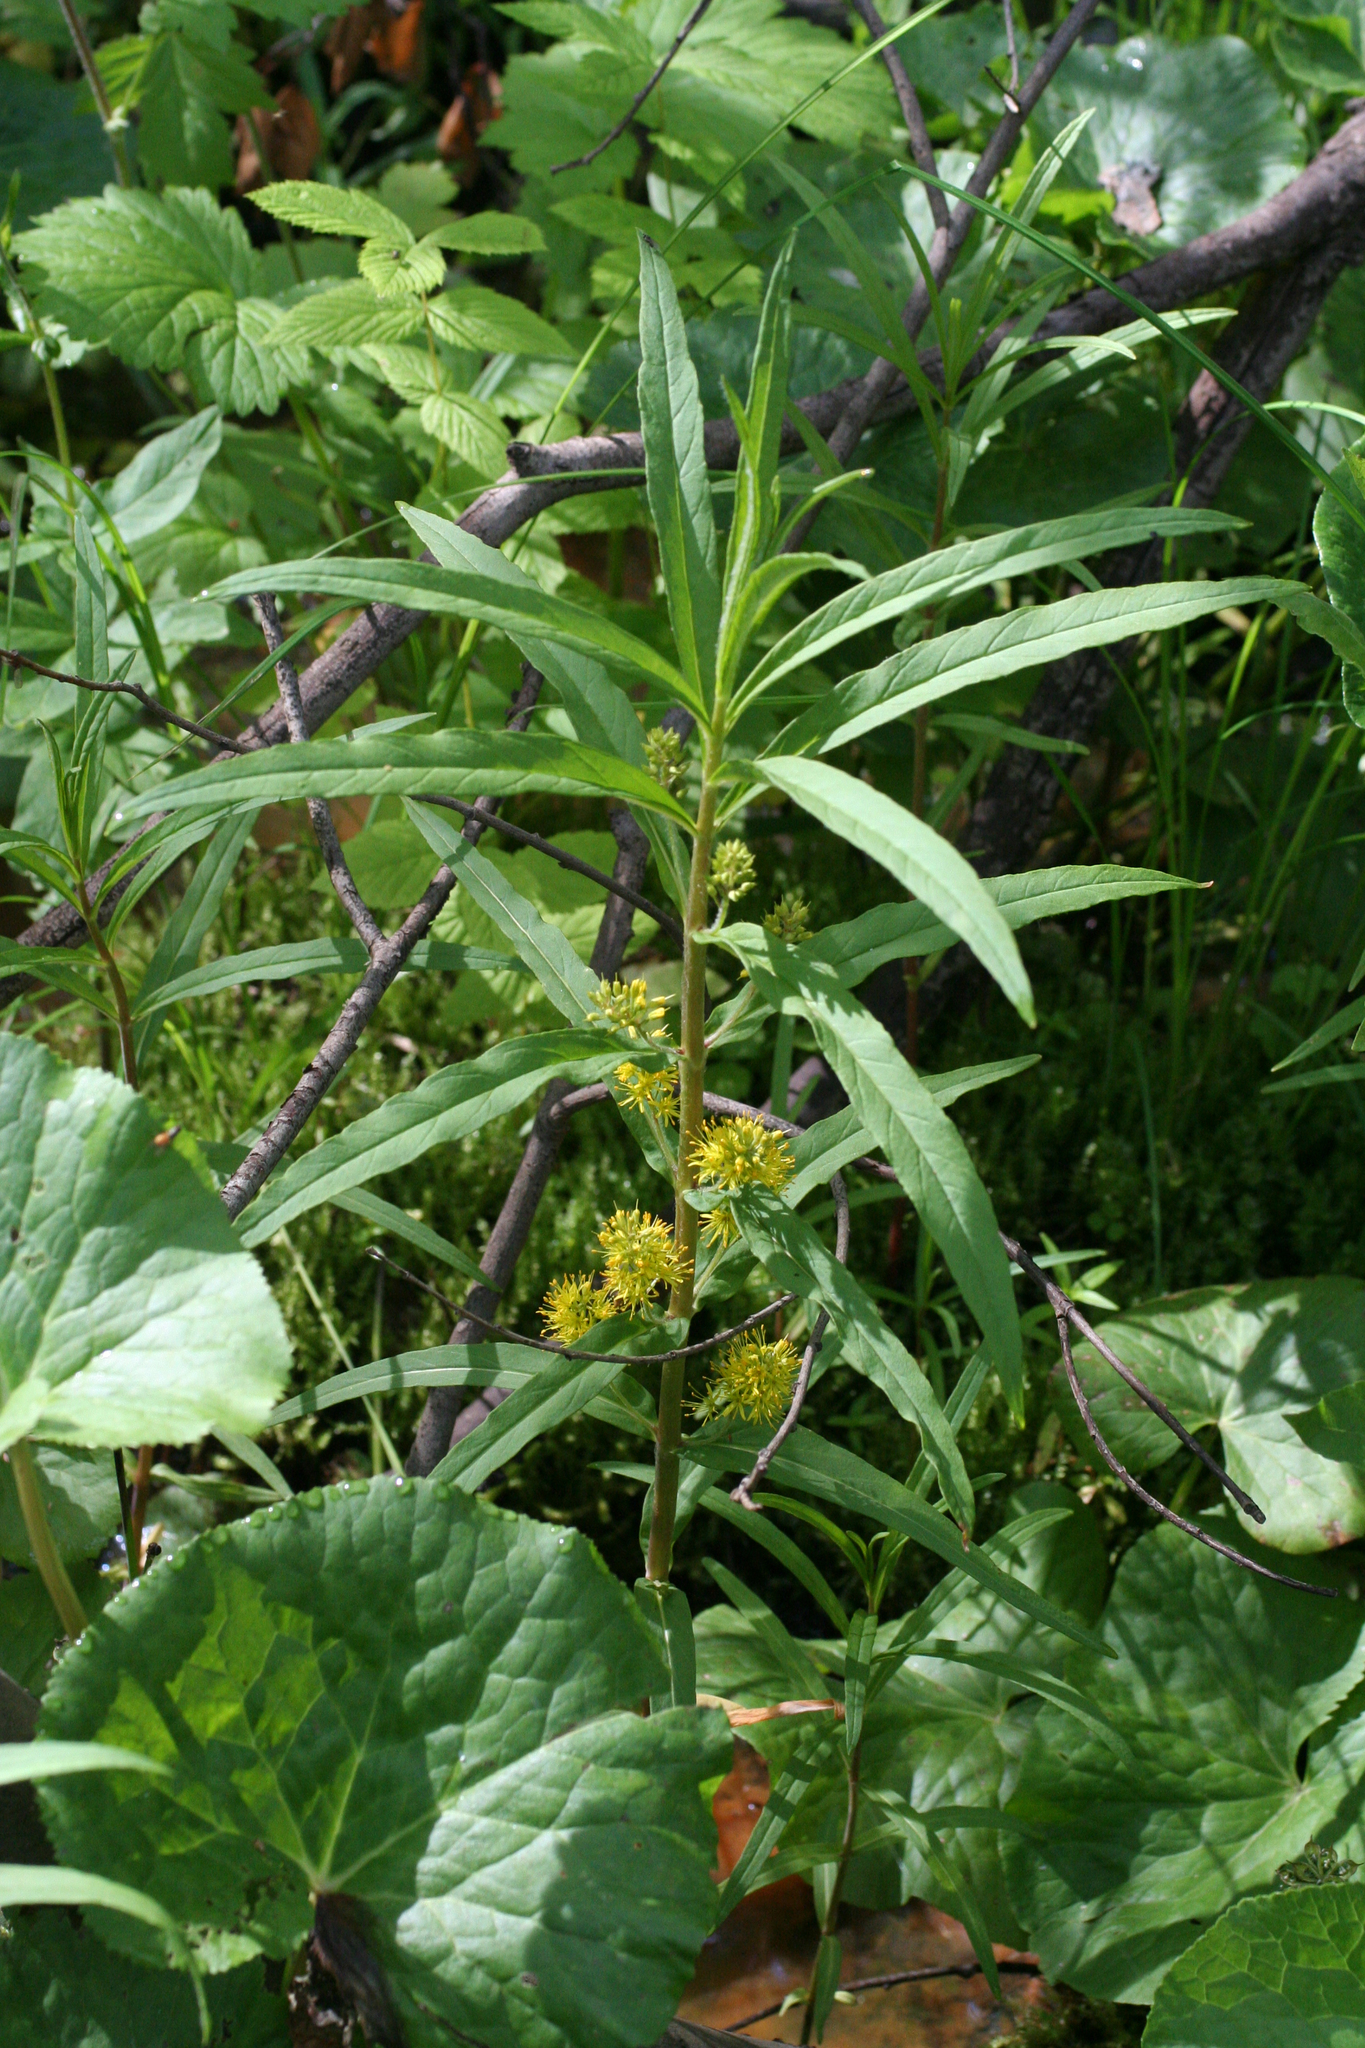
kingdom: Plantae
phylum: Tracheophyta
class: Magnoliopsida
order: Ericales
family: Primulaceae
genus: Lysimachia
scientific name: Lysimachia thyrsiflora
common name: Tufted loosestrife
